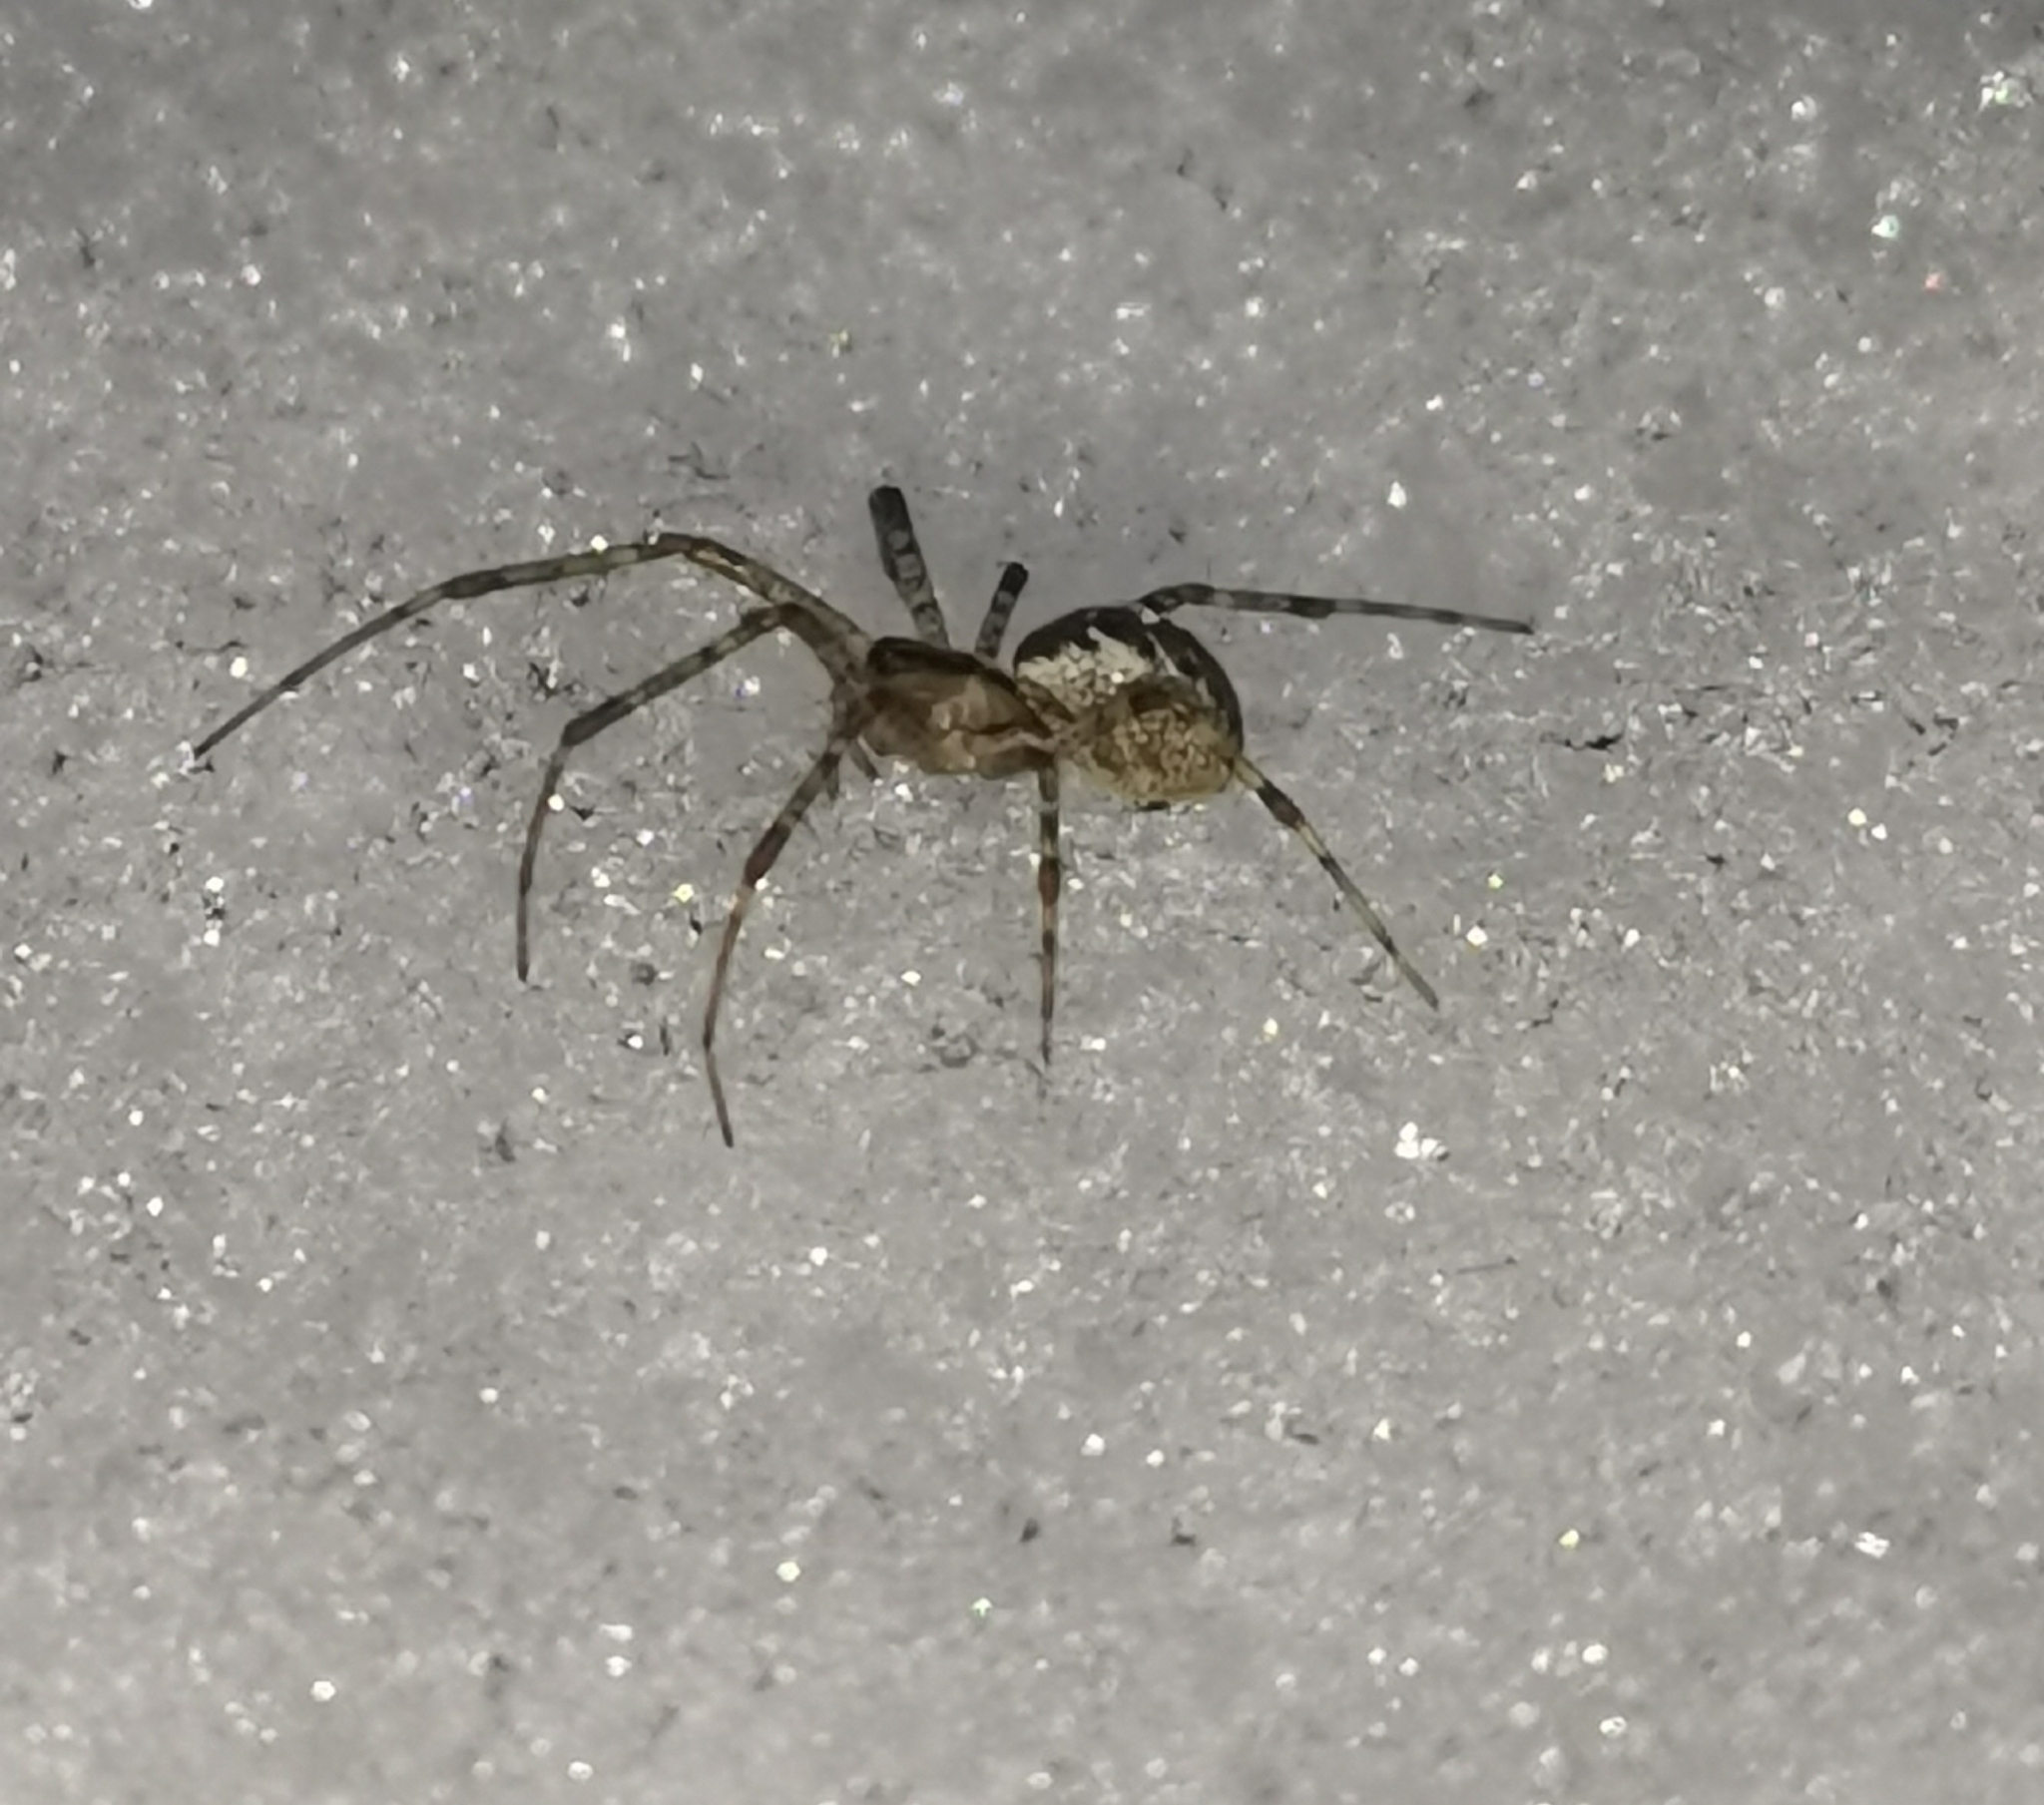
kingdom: Animalia
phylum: Arthropoda
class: Arachnida
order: Araneae
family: Linyphiidae
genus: Pityohyphantes
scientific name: Pityohyphantes phrygianus
